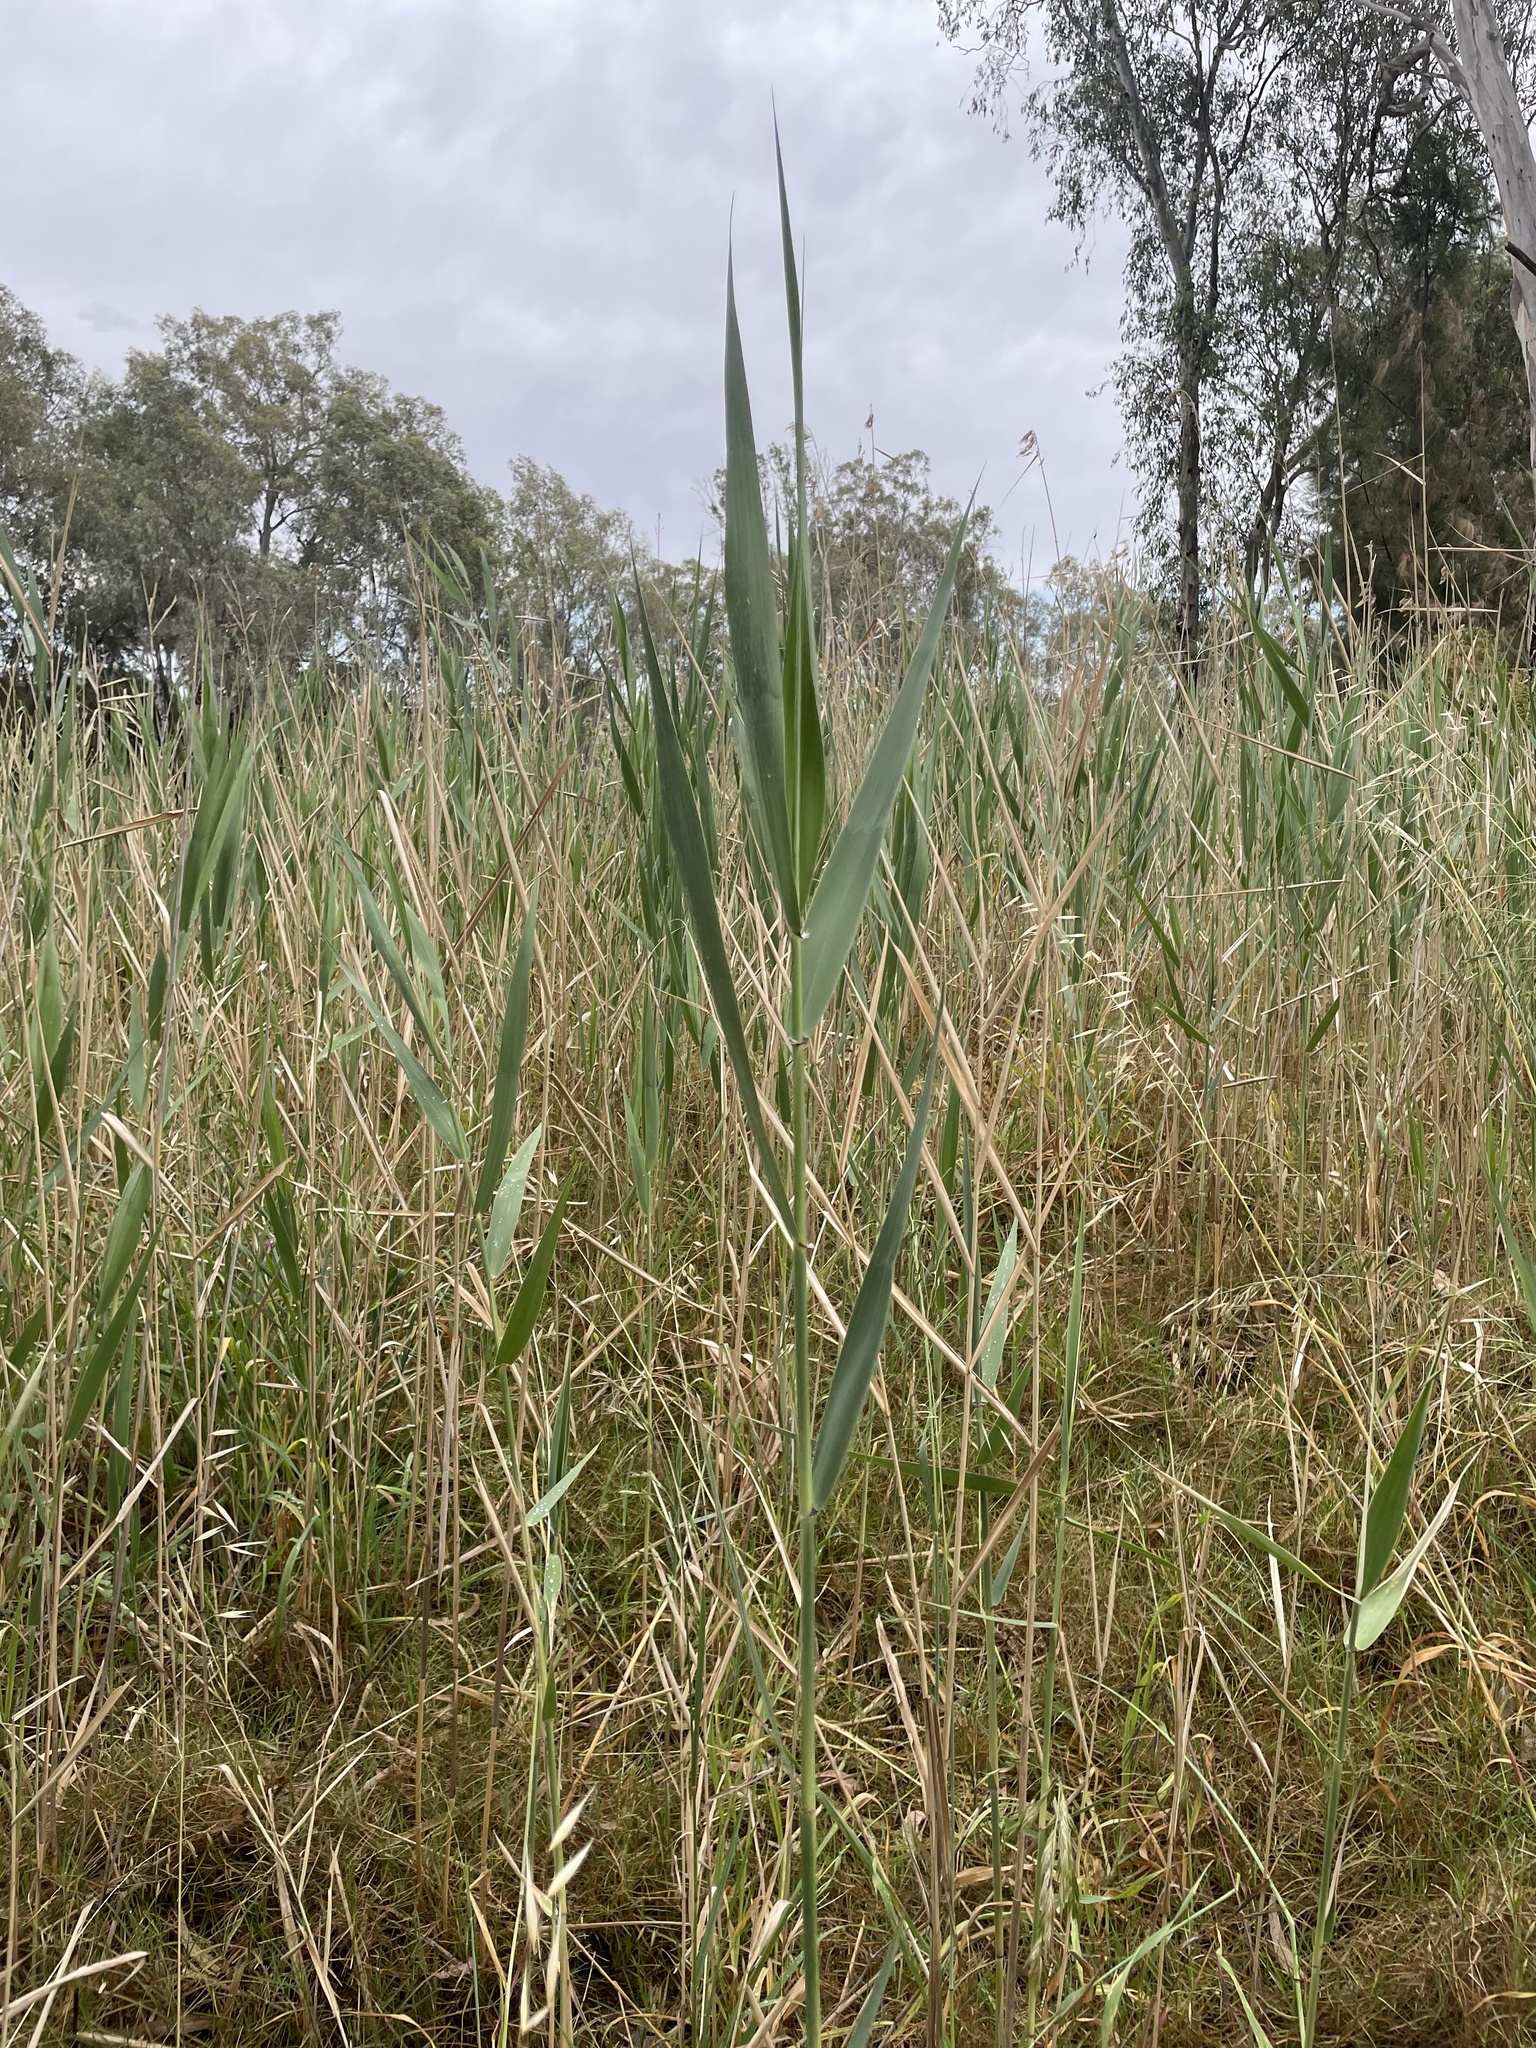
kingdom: Plantae
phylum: Tracheophyta
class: Liliopsida
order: Poales
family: Poaceae
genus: Phragmites
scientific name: Phragmites australis
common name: Common reed
